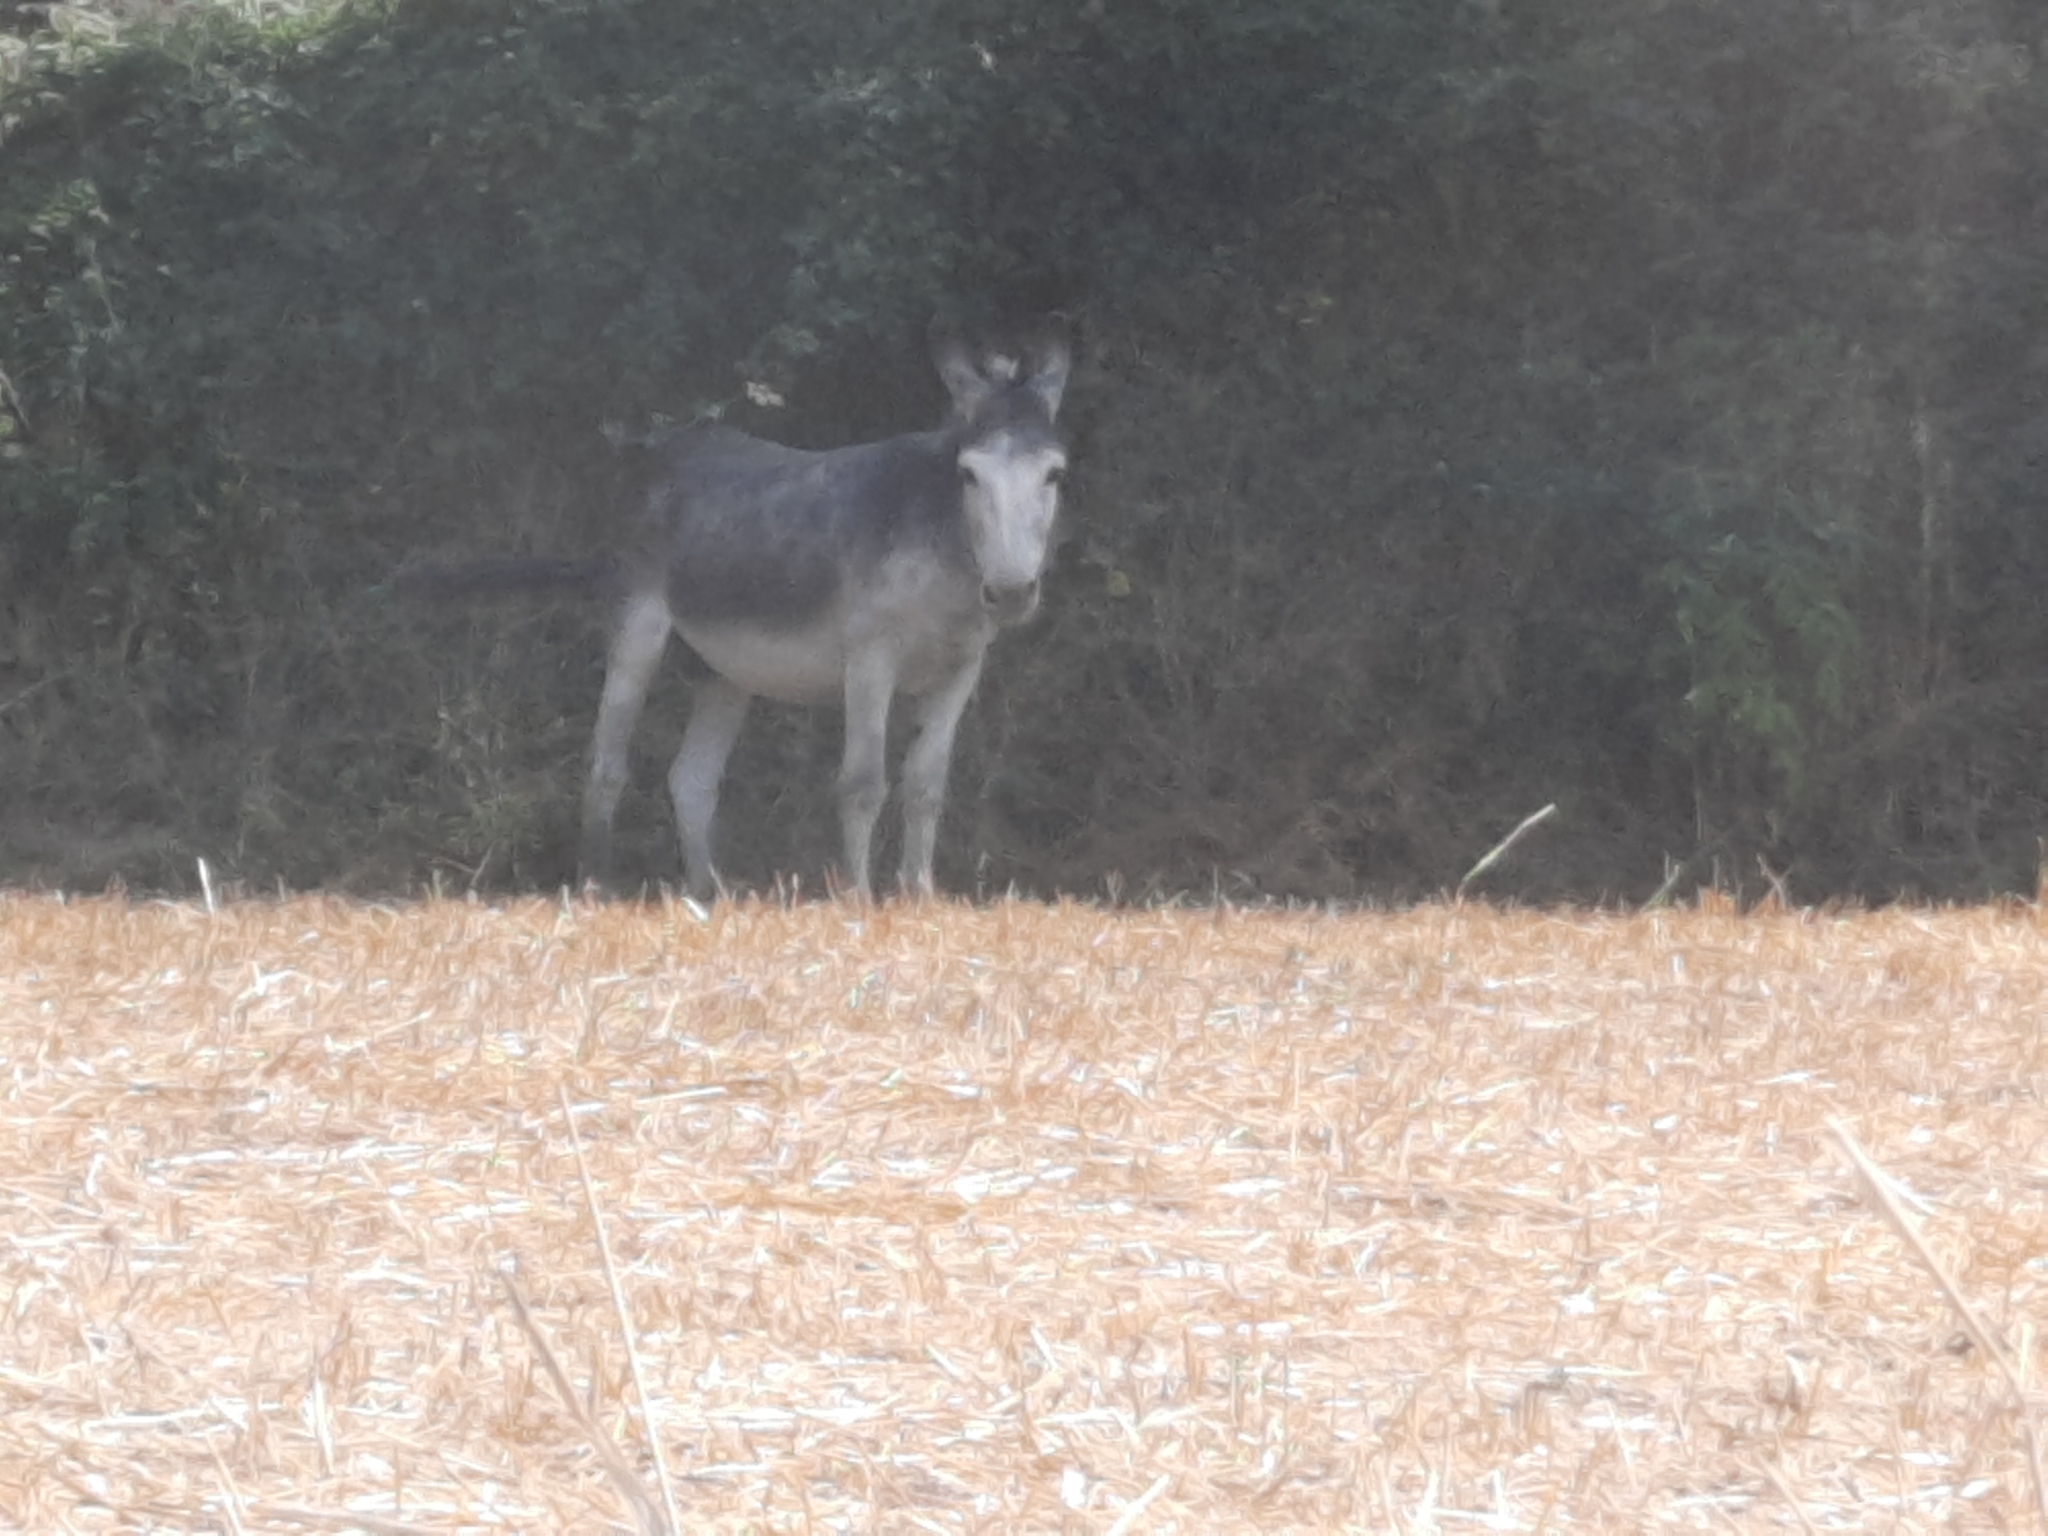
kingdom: Animalia
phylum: Chordata
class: Mammalia
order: Perissodactyla
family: Equidae
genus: Equus
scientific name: Equus asinus
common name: Ass
